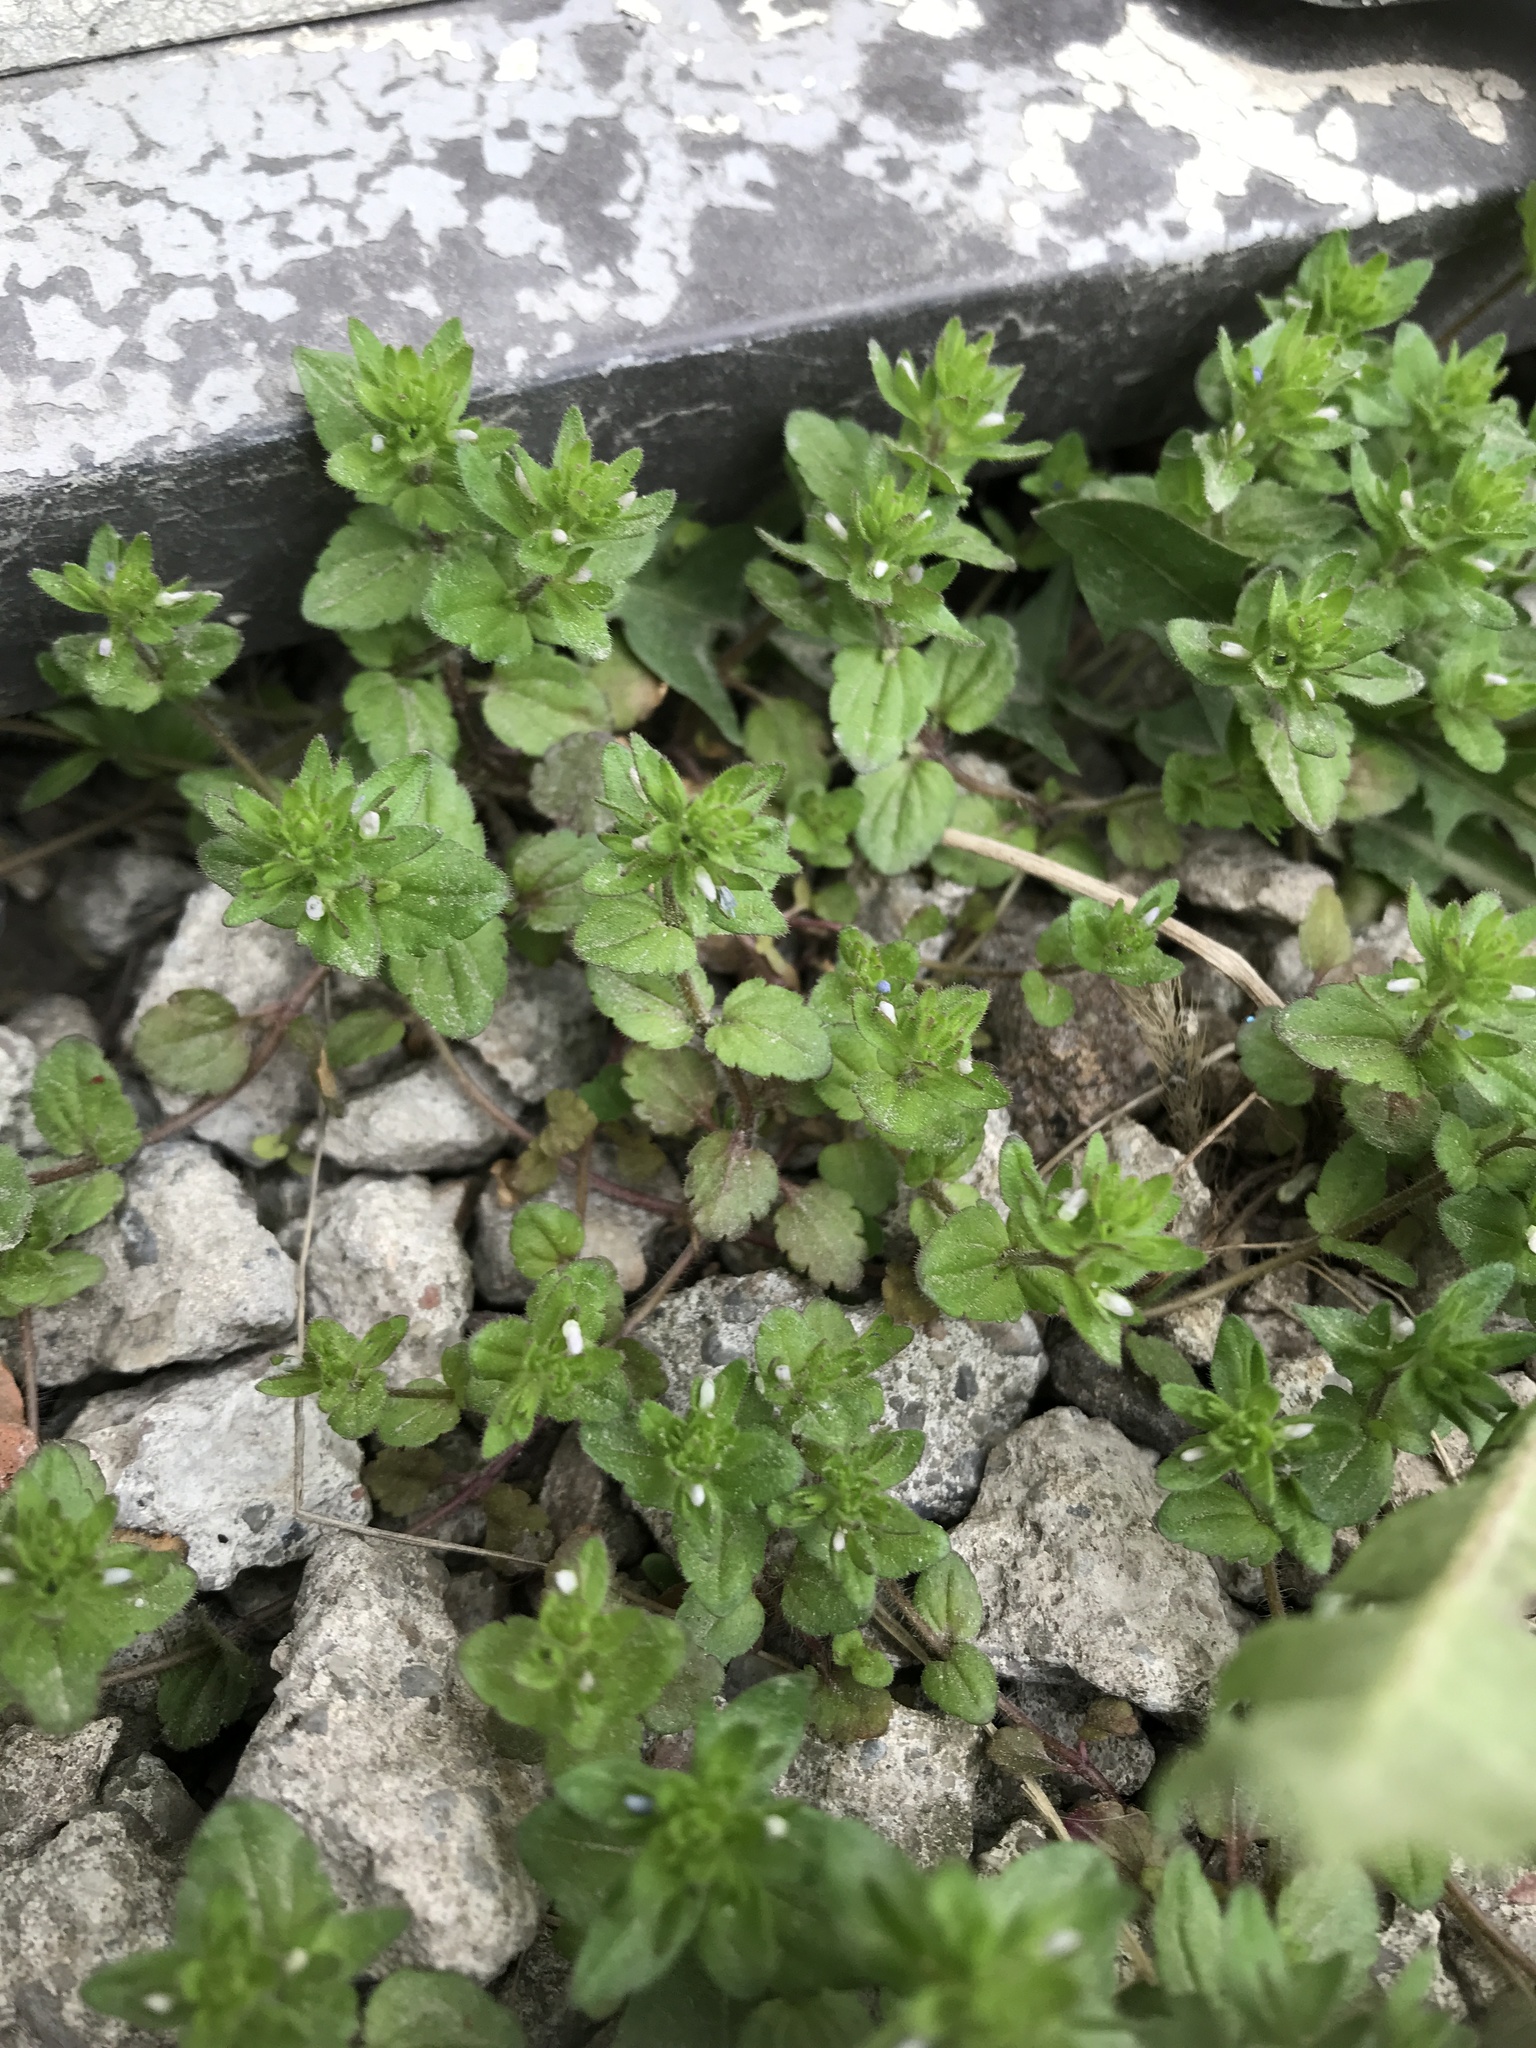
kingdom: Plantae
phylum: Tracheophyta
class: Magnoliopsida
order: Lamiales
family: Plantaginaceae
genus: Veronica
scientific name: Veronica arvensis
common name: Corn speedwell
